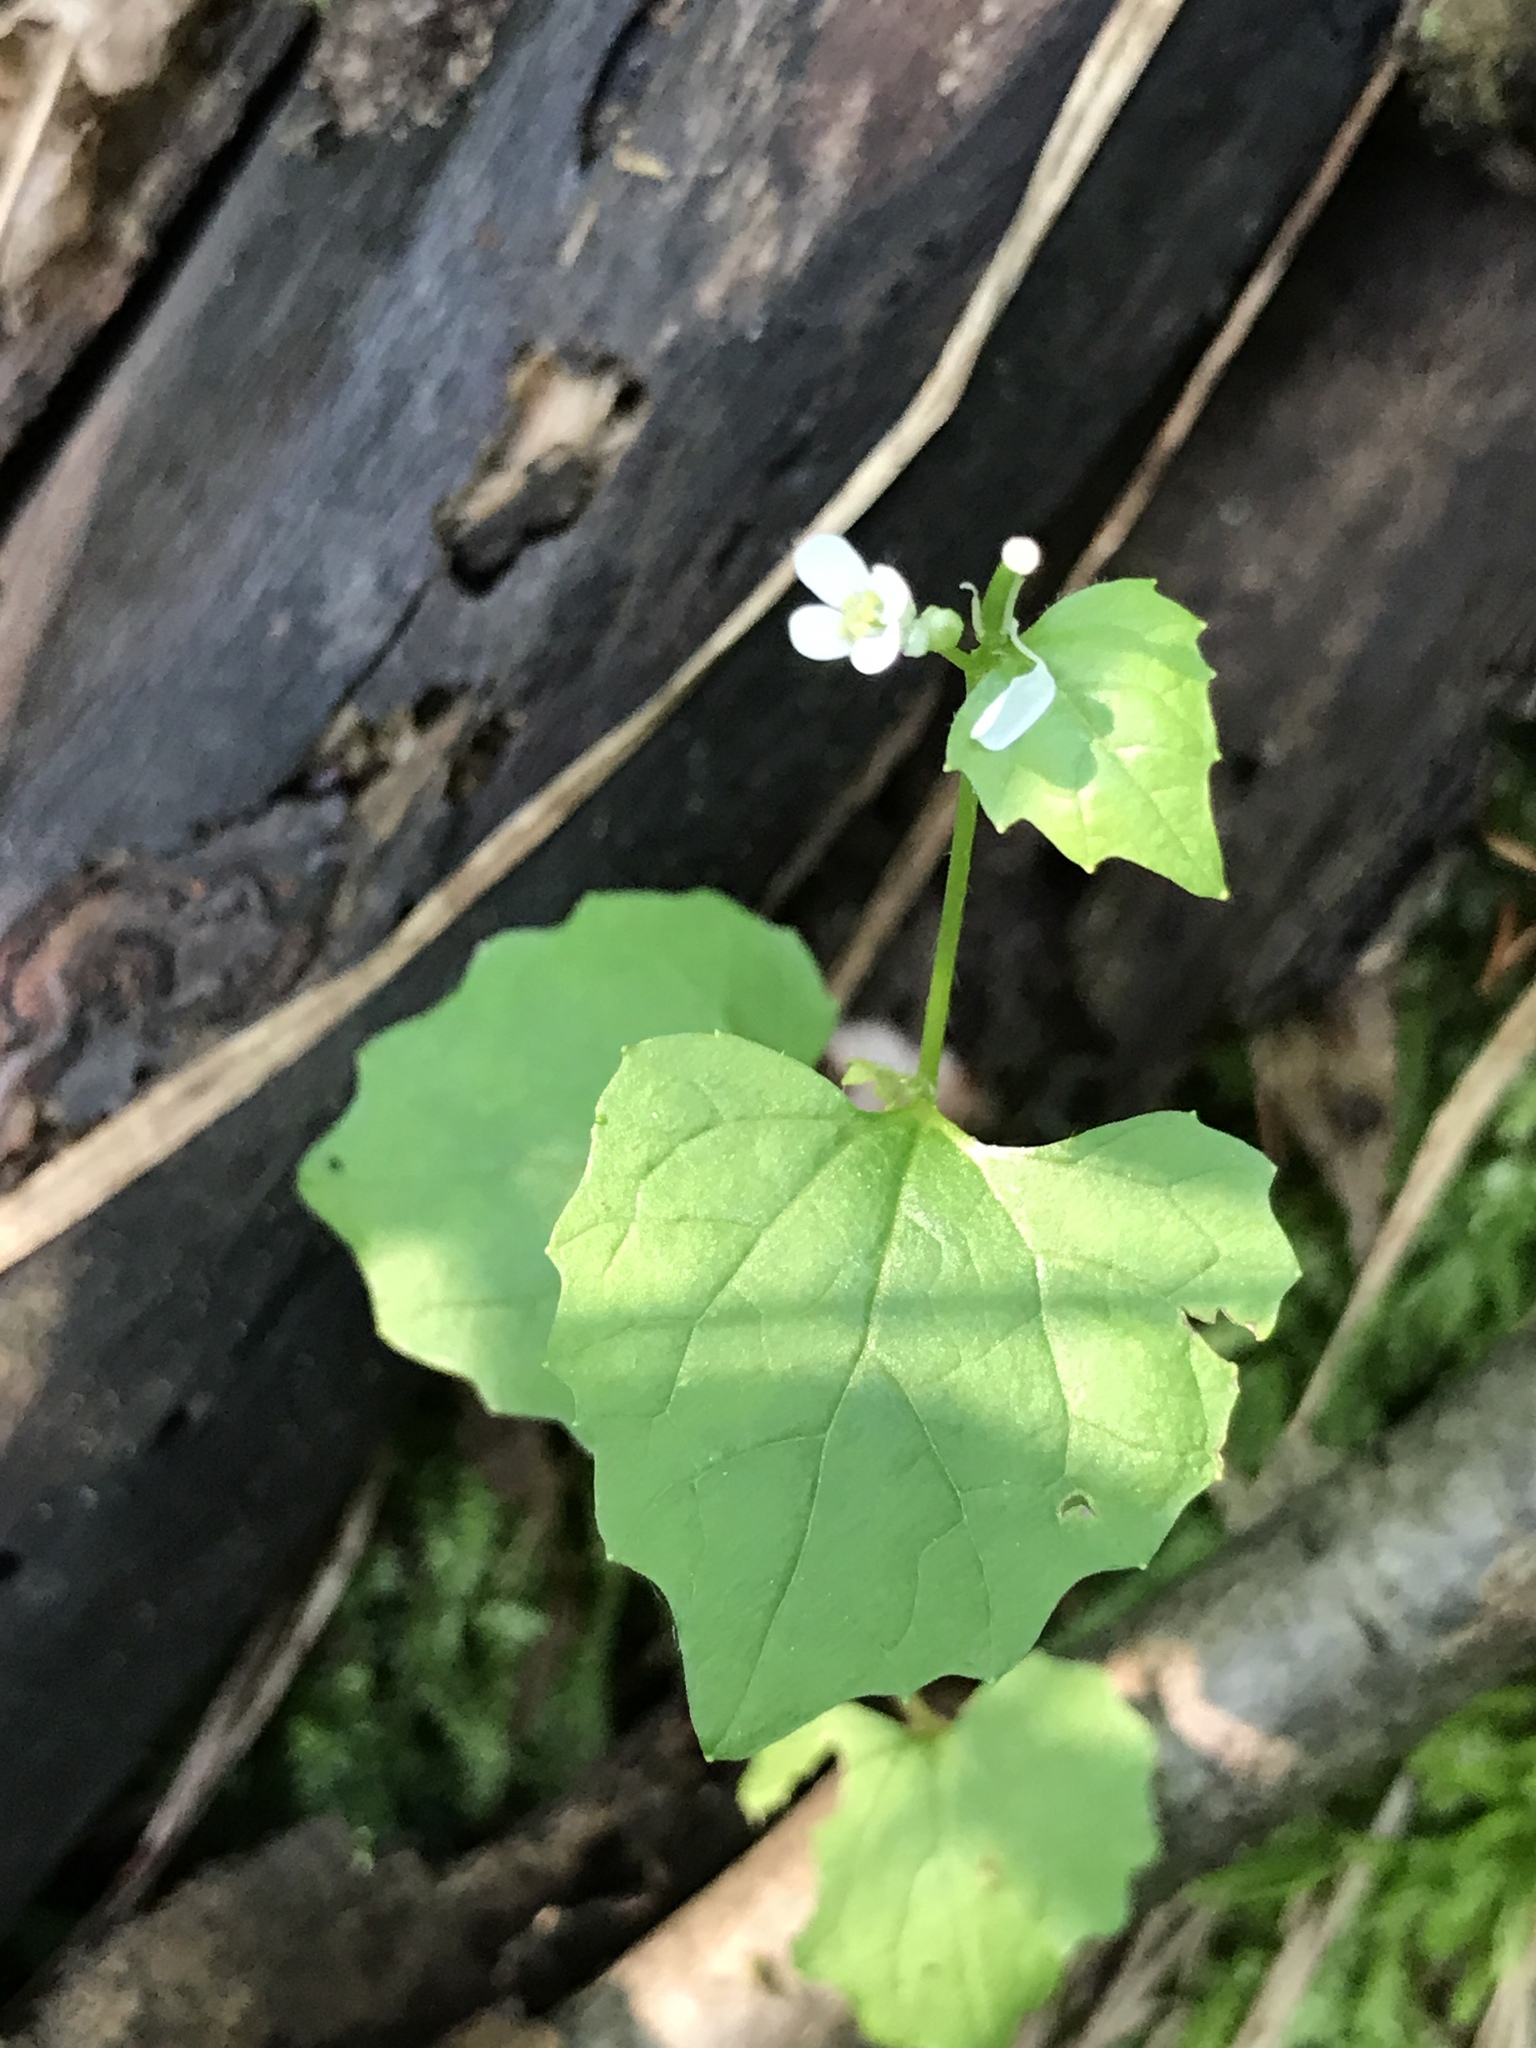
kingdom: Plantae
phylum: Tracheophyta
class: Magnoliopsida
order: Brassicales
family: Brassicaceae
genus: Alliaria
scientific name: Alliaria petiolata
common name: Garlic mustard
